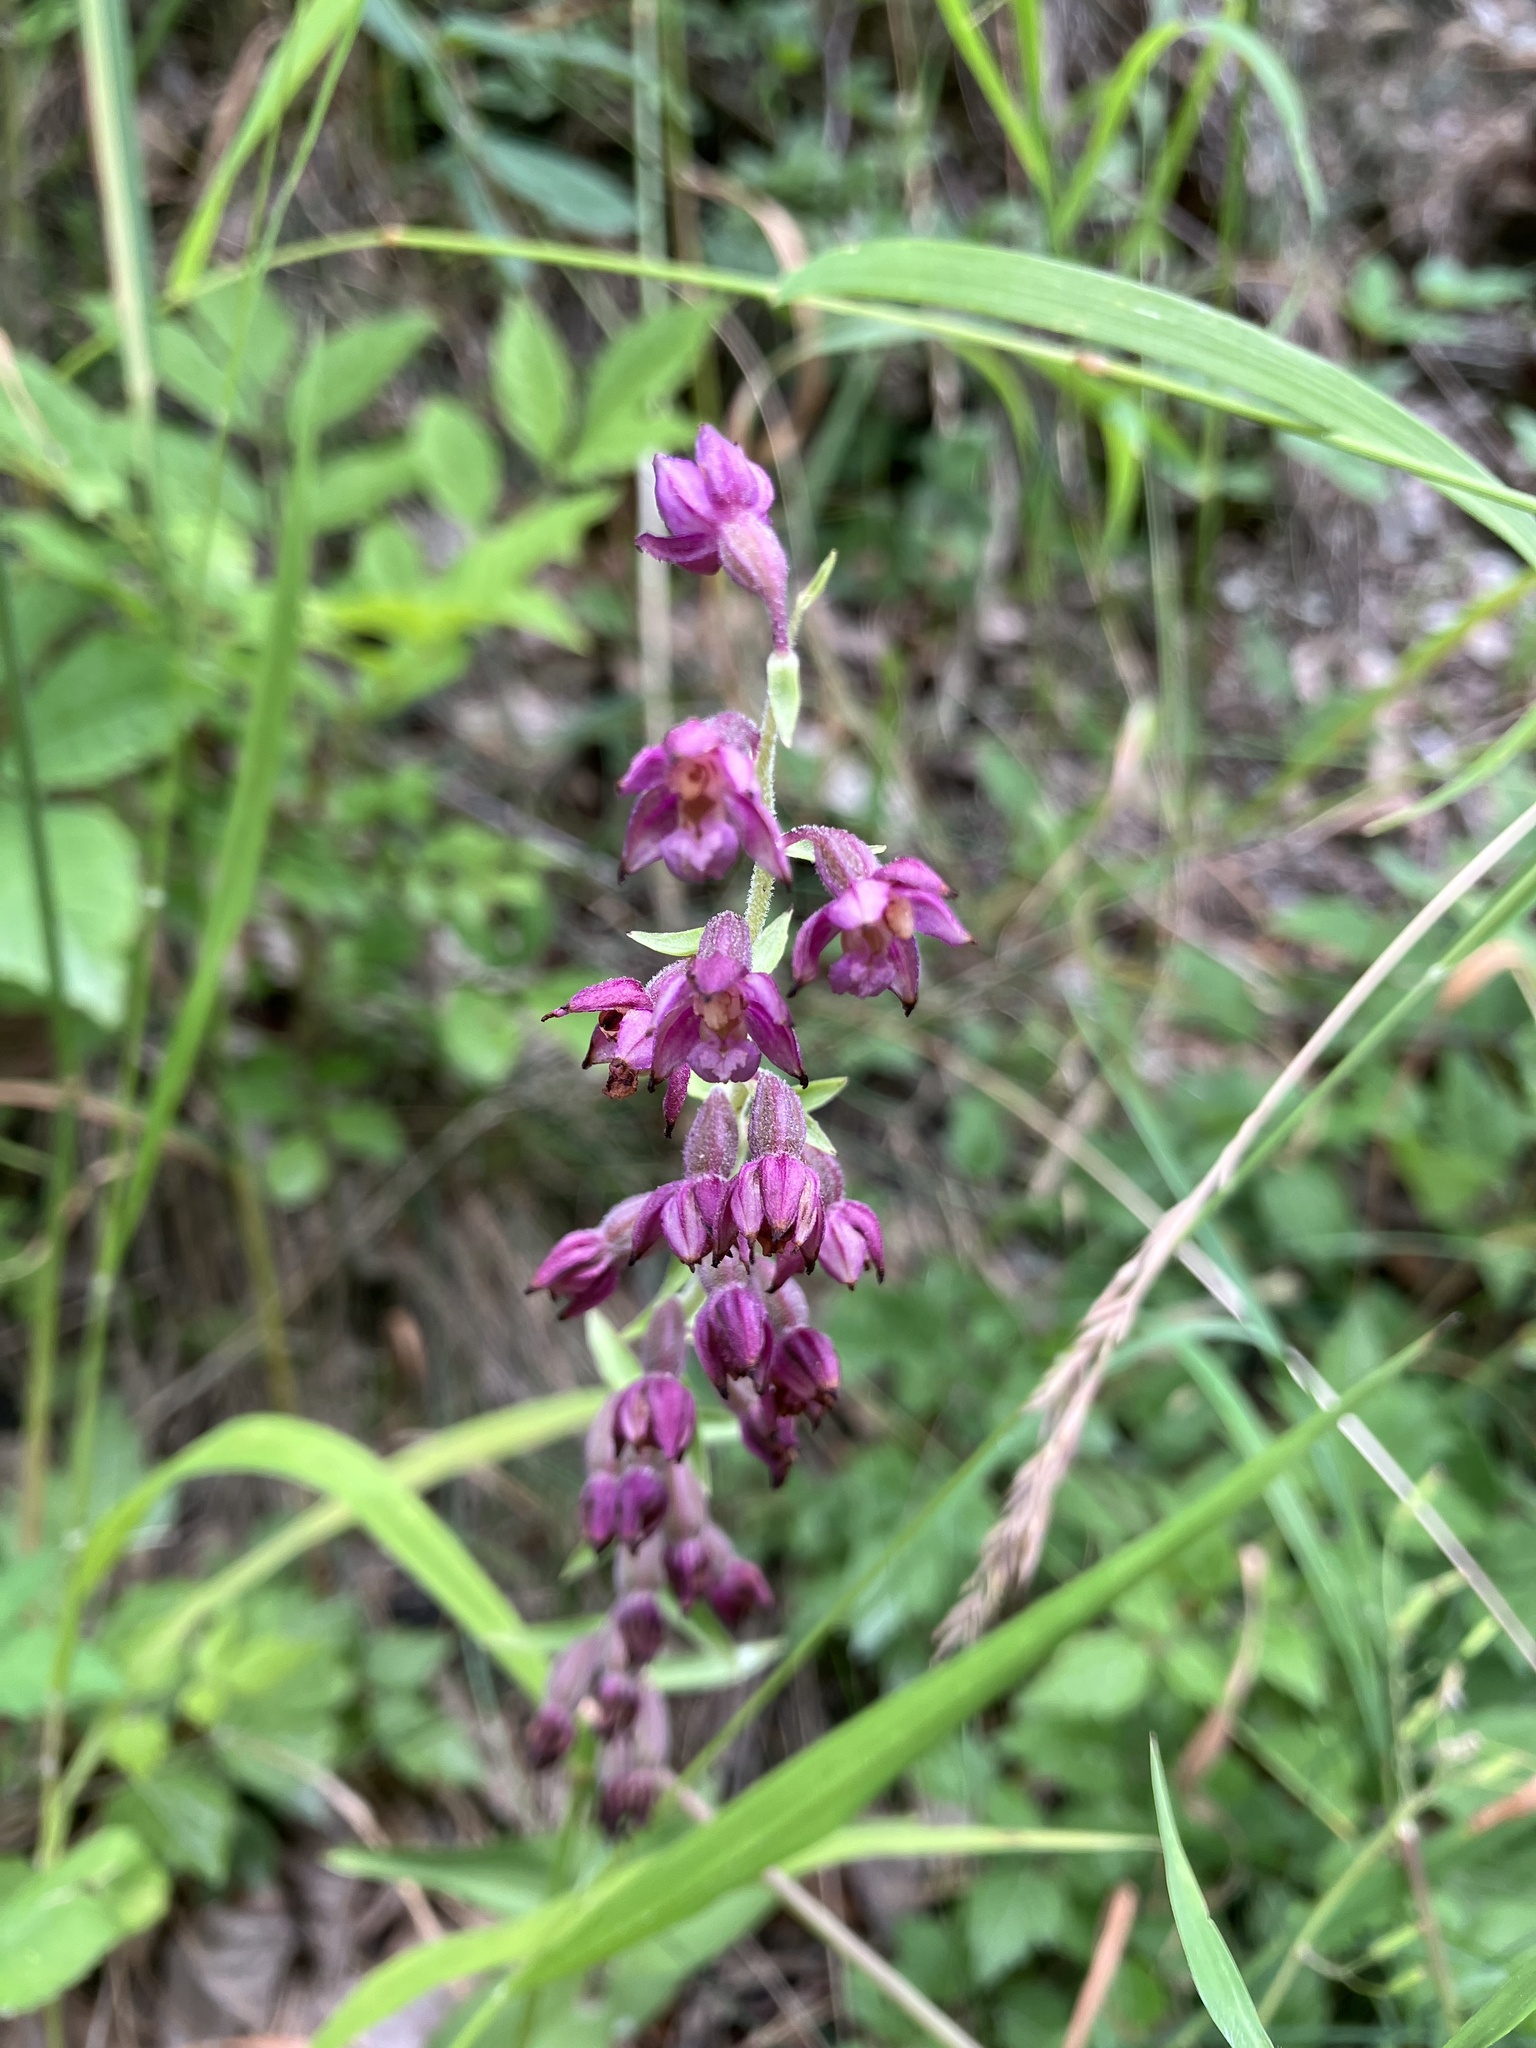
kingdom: Plantae
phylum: Tracheophyta
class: Liliopsida
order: Asparagales
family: Orchidaceae
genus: Epipactis
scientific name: Epipactis atrorubens
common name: Dark-red helleborine
